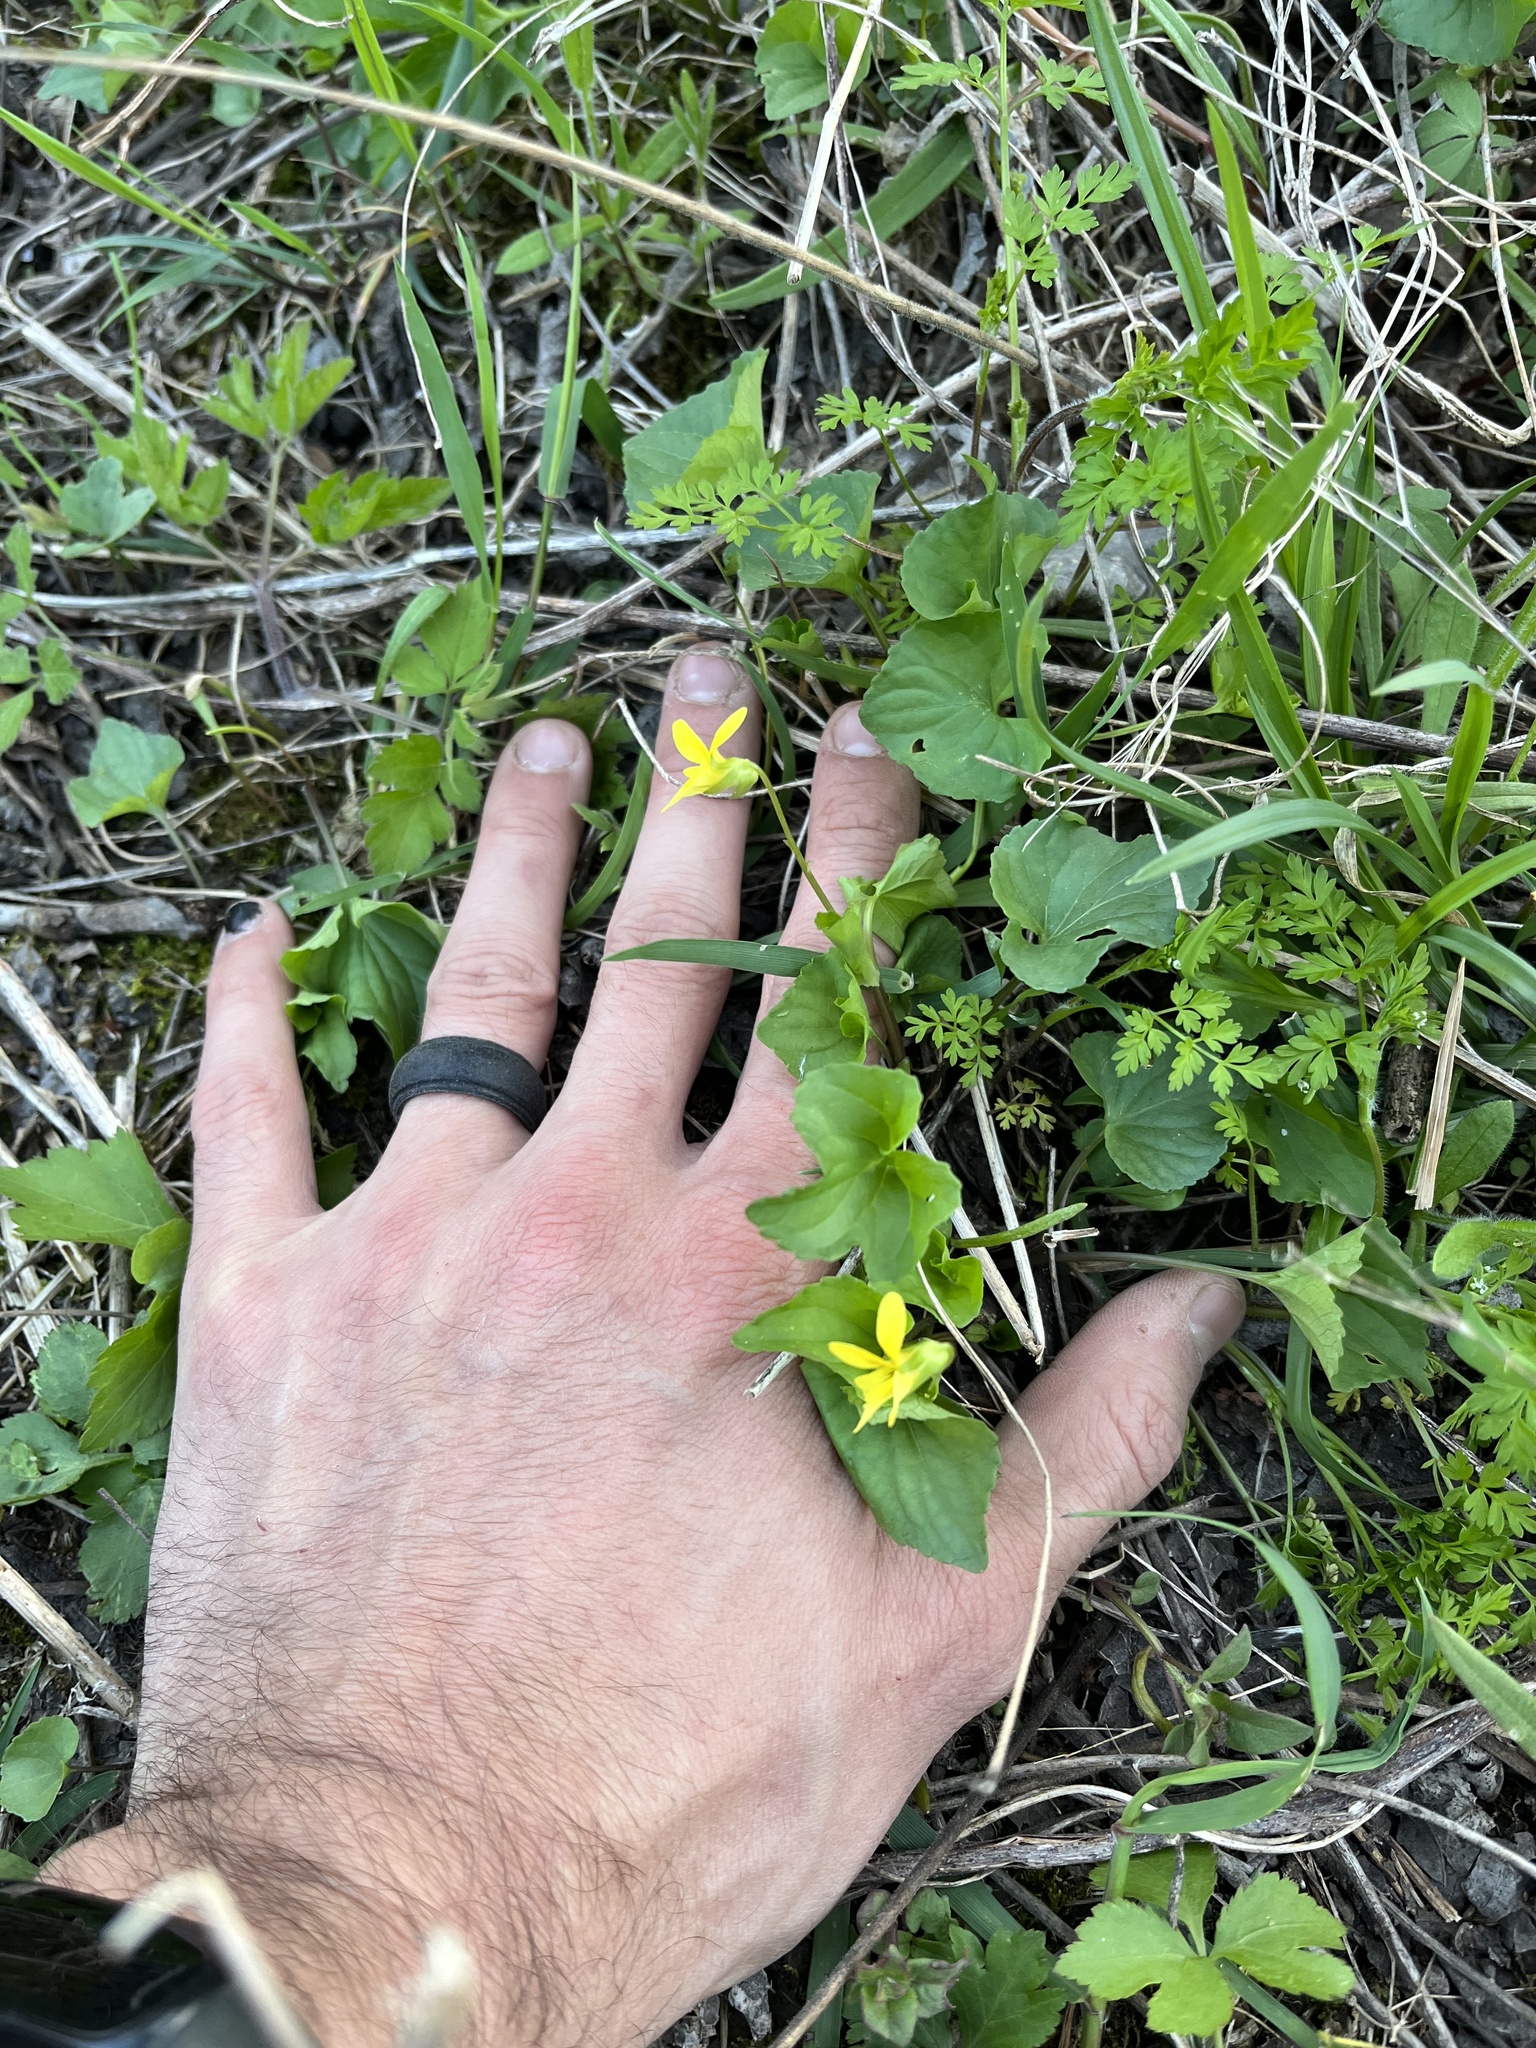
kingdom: Plantae
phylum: Tracheophyta
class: Magnoliopsida
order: Malpighiales
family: Violaceae
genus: Viola
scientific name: Viola eriocarpa
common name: Smooth yellow violet
